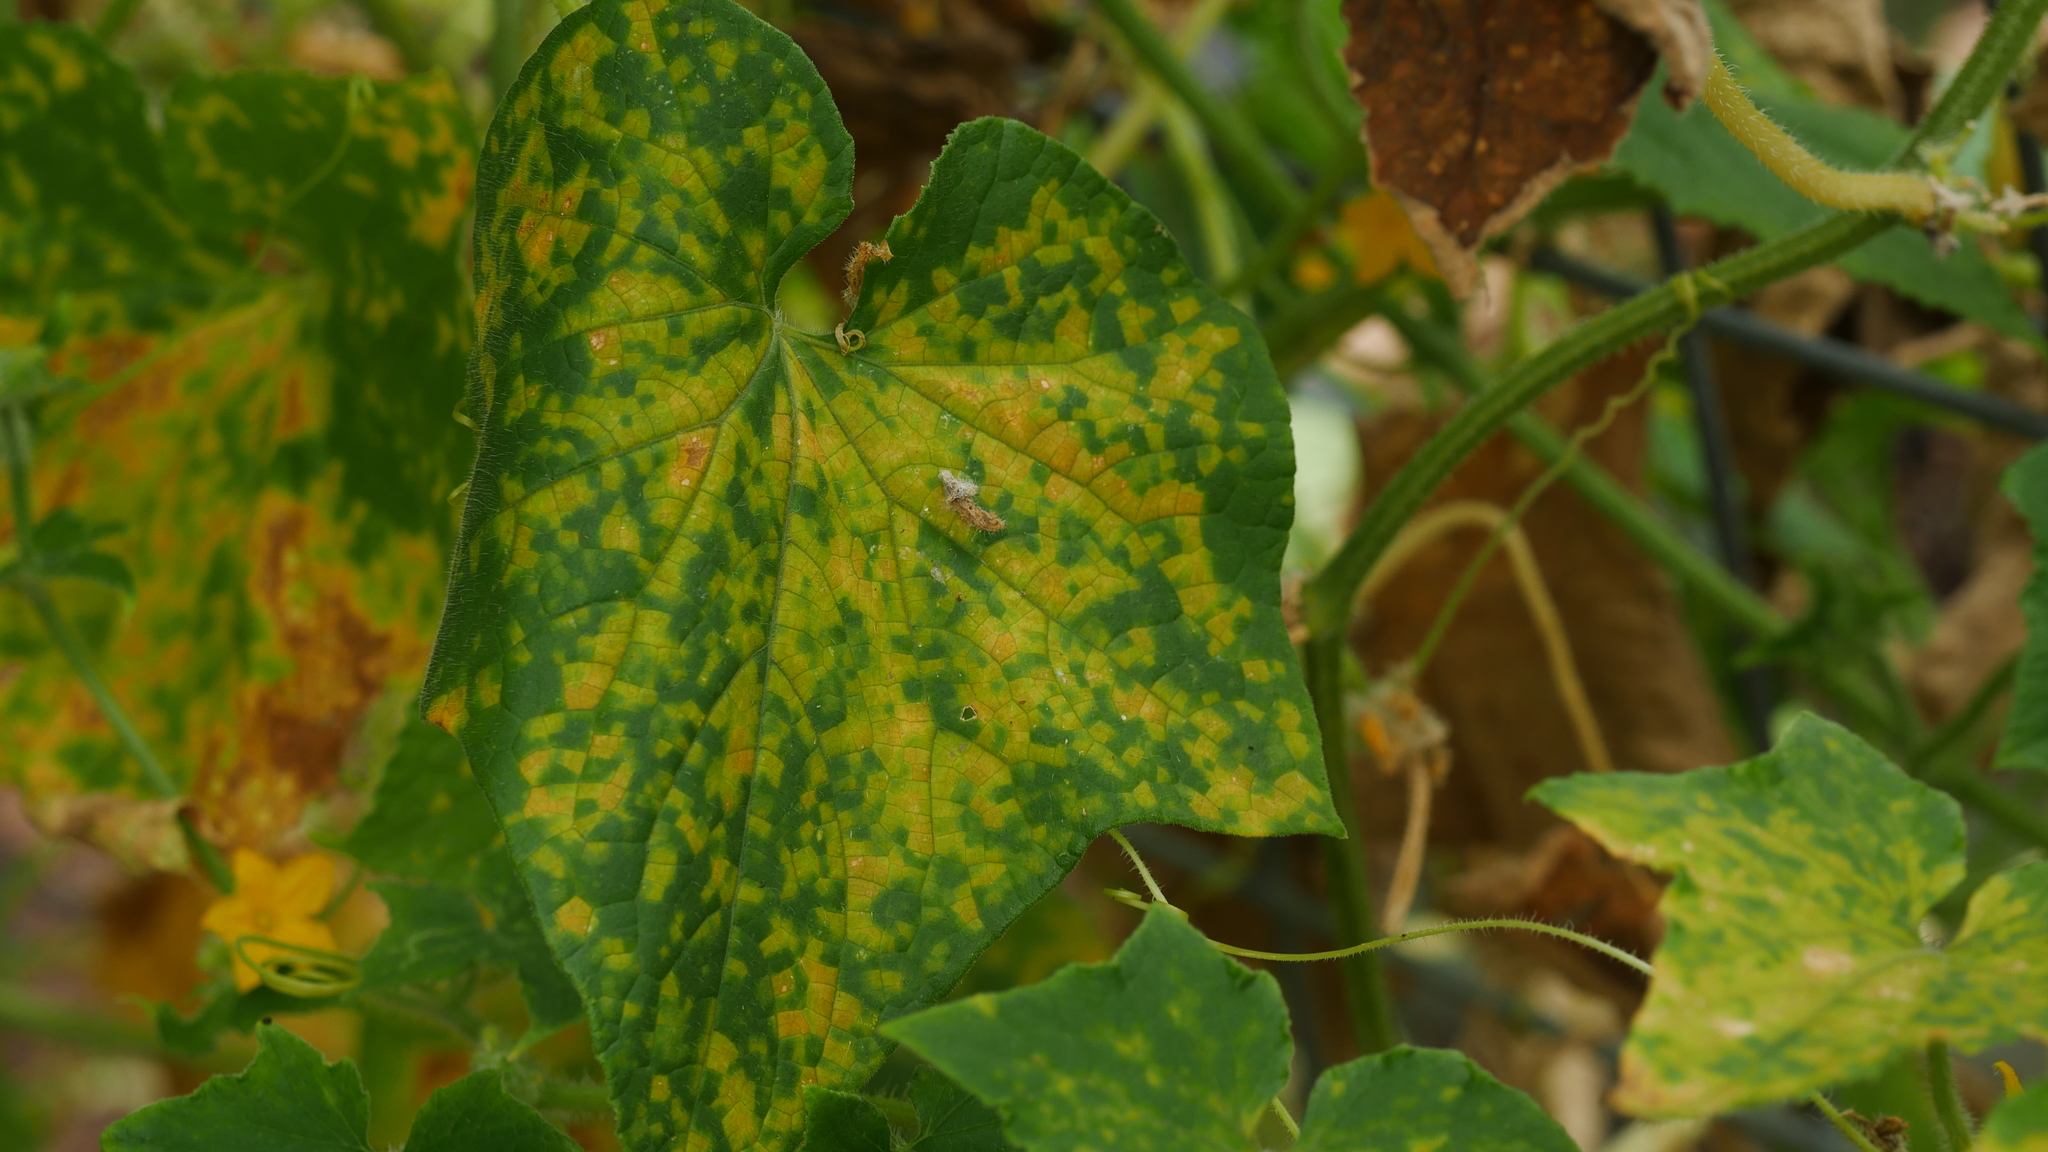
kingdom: Chromista
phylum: Oomycota
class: Peronosporea
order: Peronosporales
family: Peronosporaceae
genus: Pseudoperonospora
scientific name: Pseudoperonospora cubensis
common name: Cucurbit downy mildew
